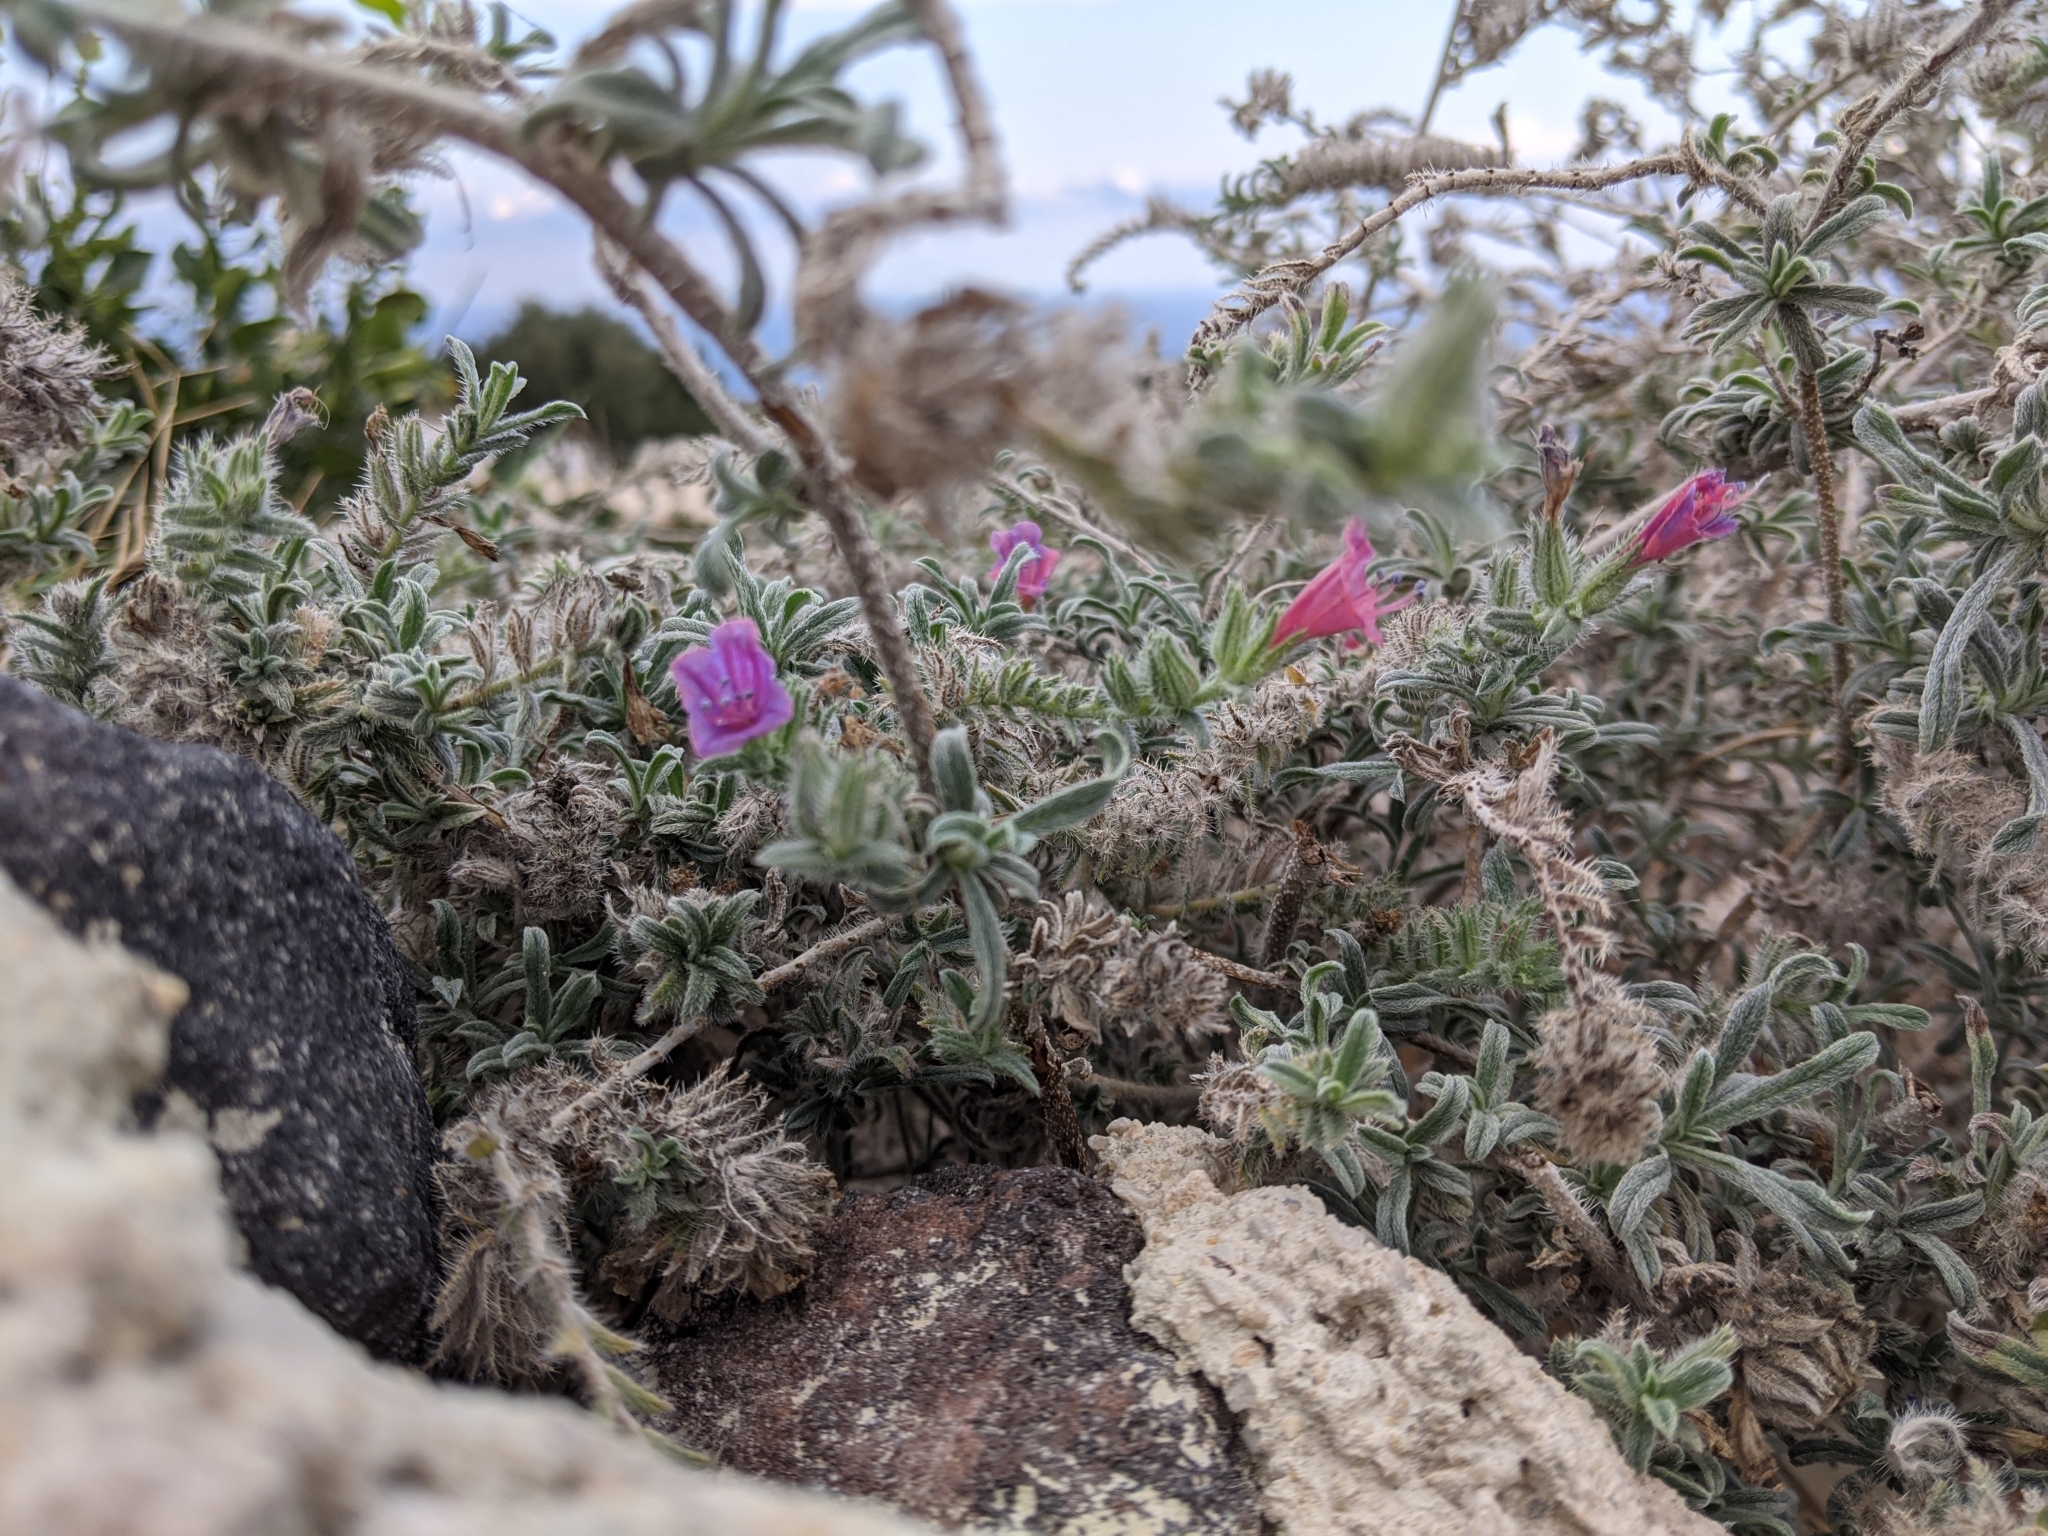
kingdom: Plantae
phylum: Tracheophyta
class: Magnoliopsida
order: Boraginales
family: Boraginaceae
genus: Echium
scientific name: Echium angustifolium
